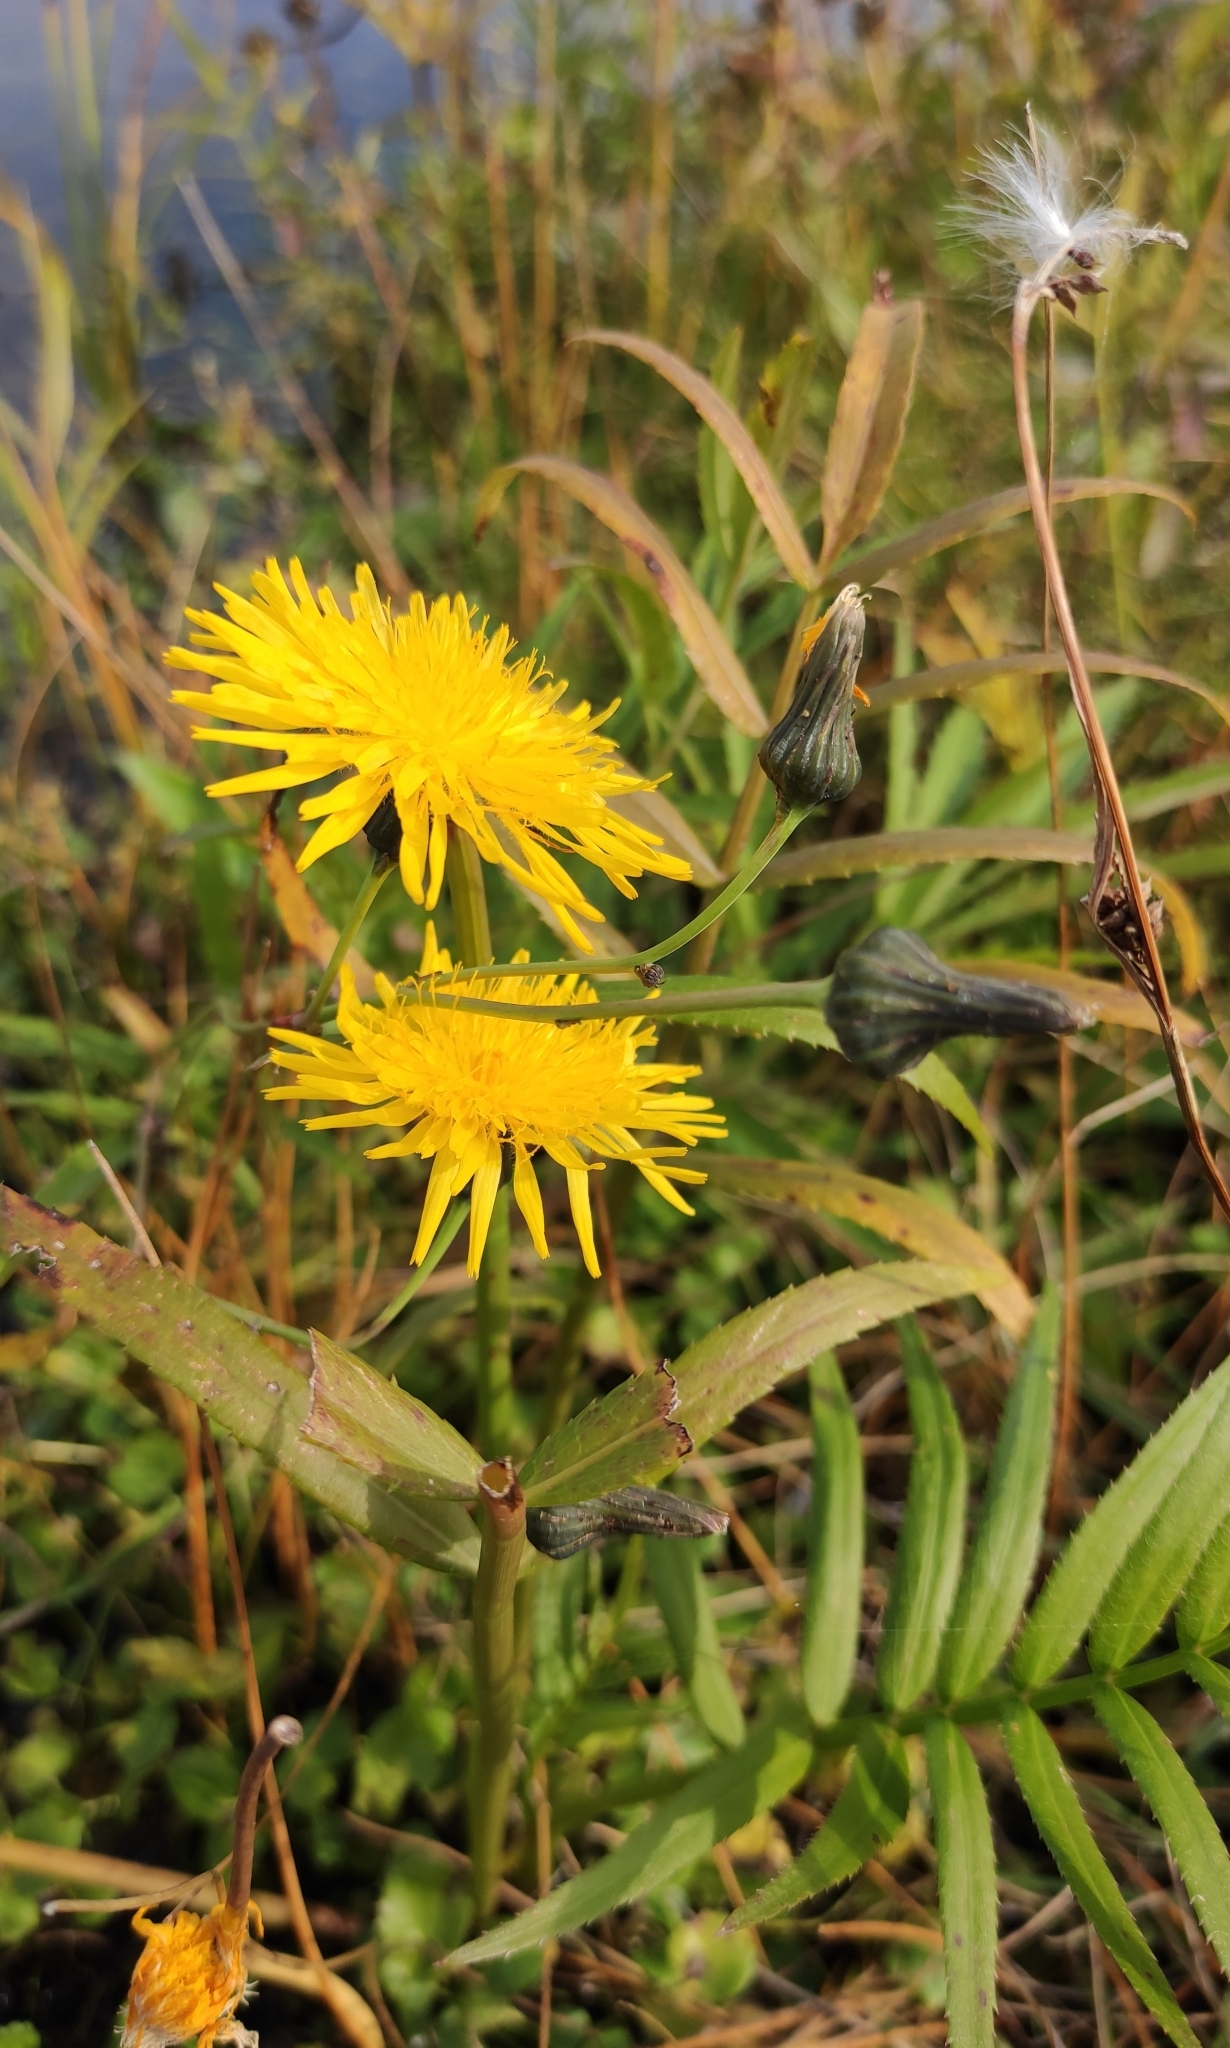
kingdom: Plantae
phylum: Tracheophyta
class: Magnoliopsida
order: Asterales
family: Asteraceae
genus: Sonchus
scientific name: Sonchus arvensis
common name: Perennial sow-thistle
